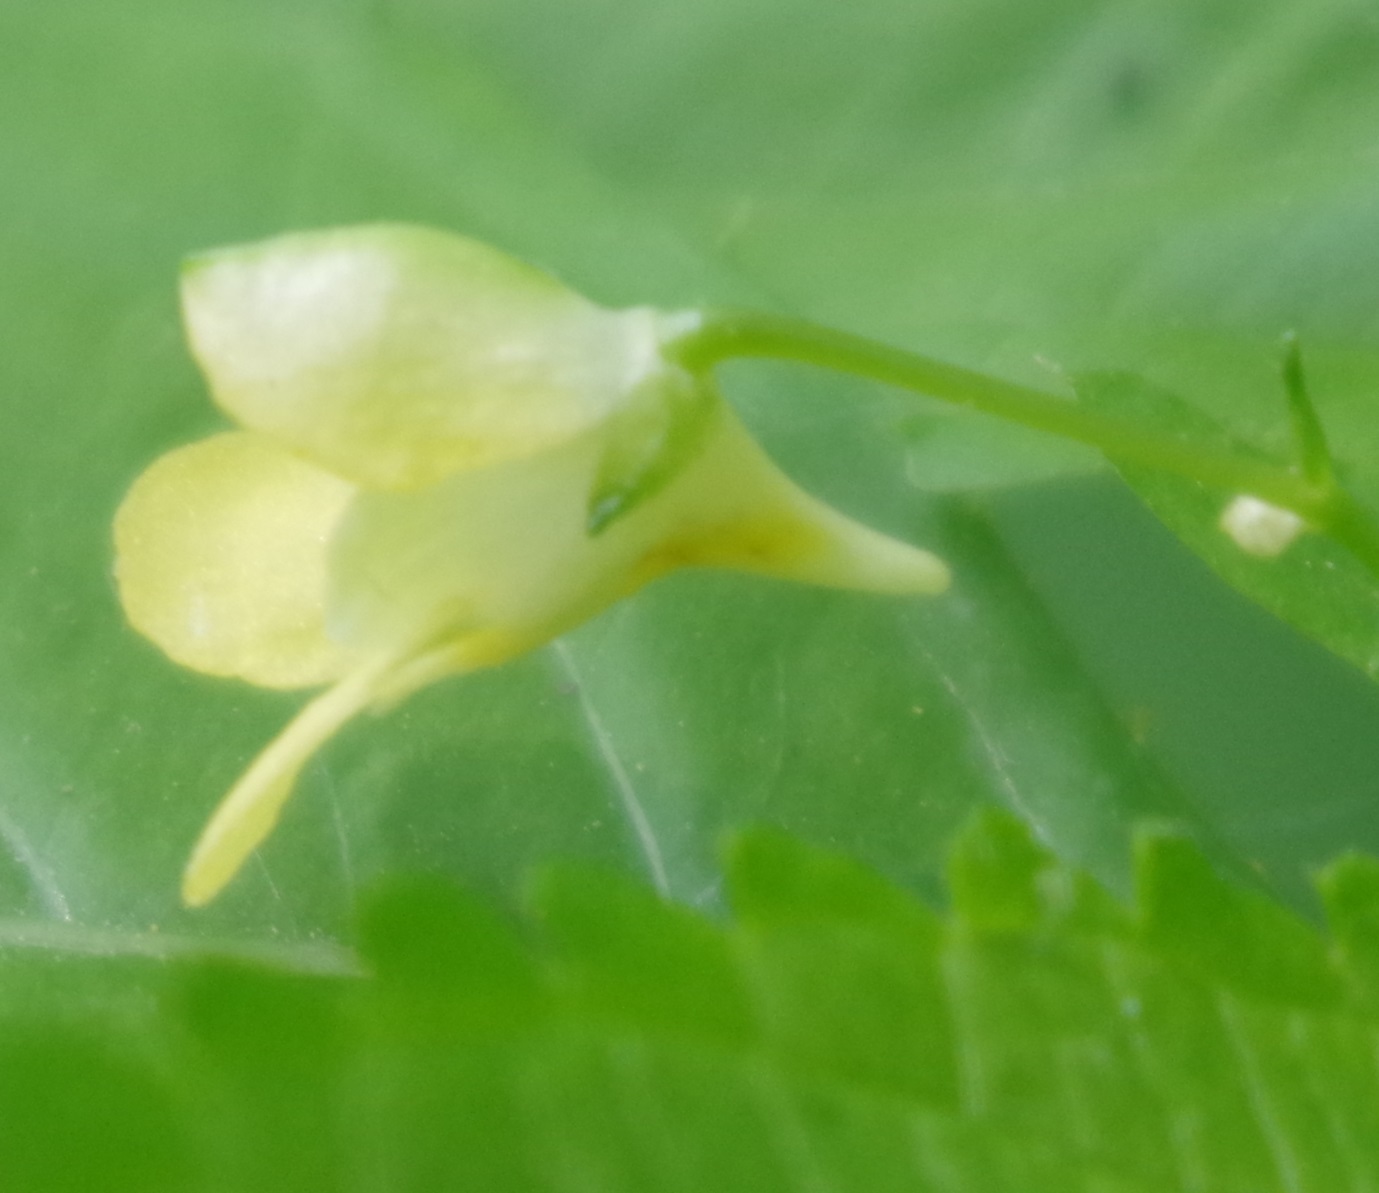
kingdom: Plantae
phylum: Tracheophyta
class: Magnoliopsida
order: Ericales
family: Balsaminaceae
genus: Impatiens
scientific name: Impatiens parviflora
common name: Small balsam
